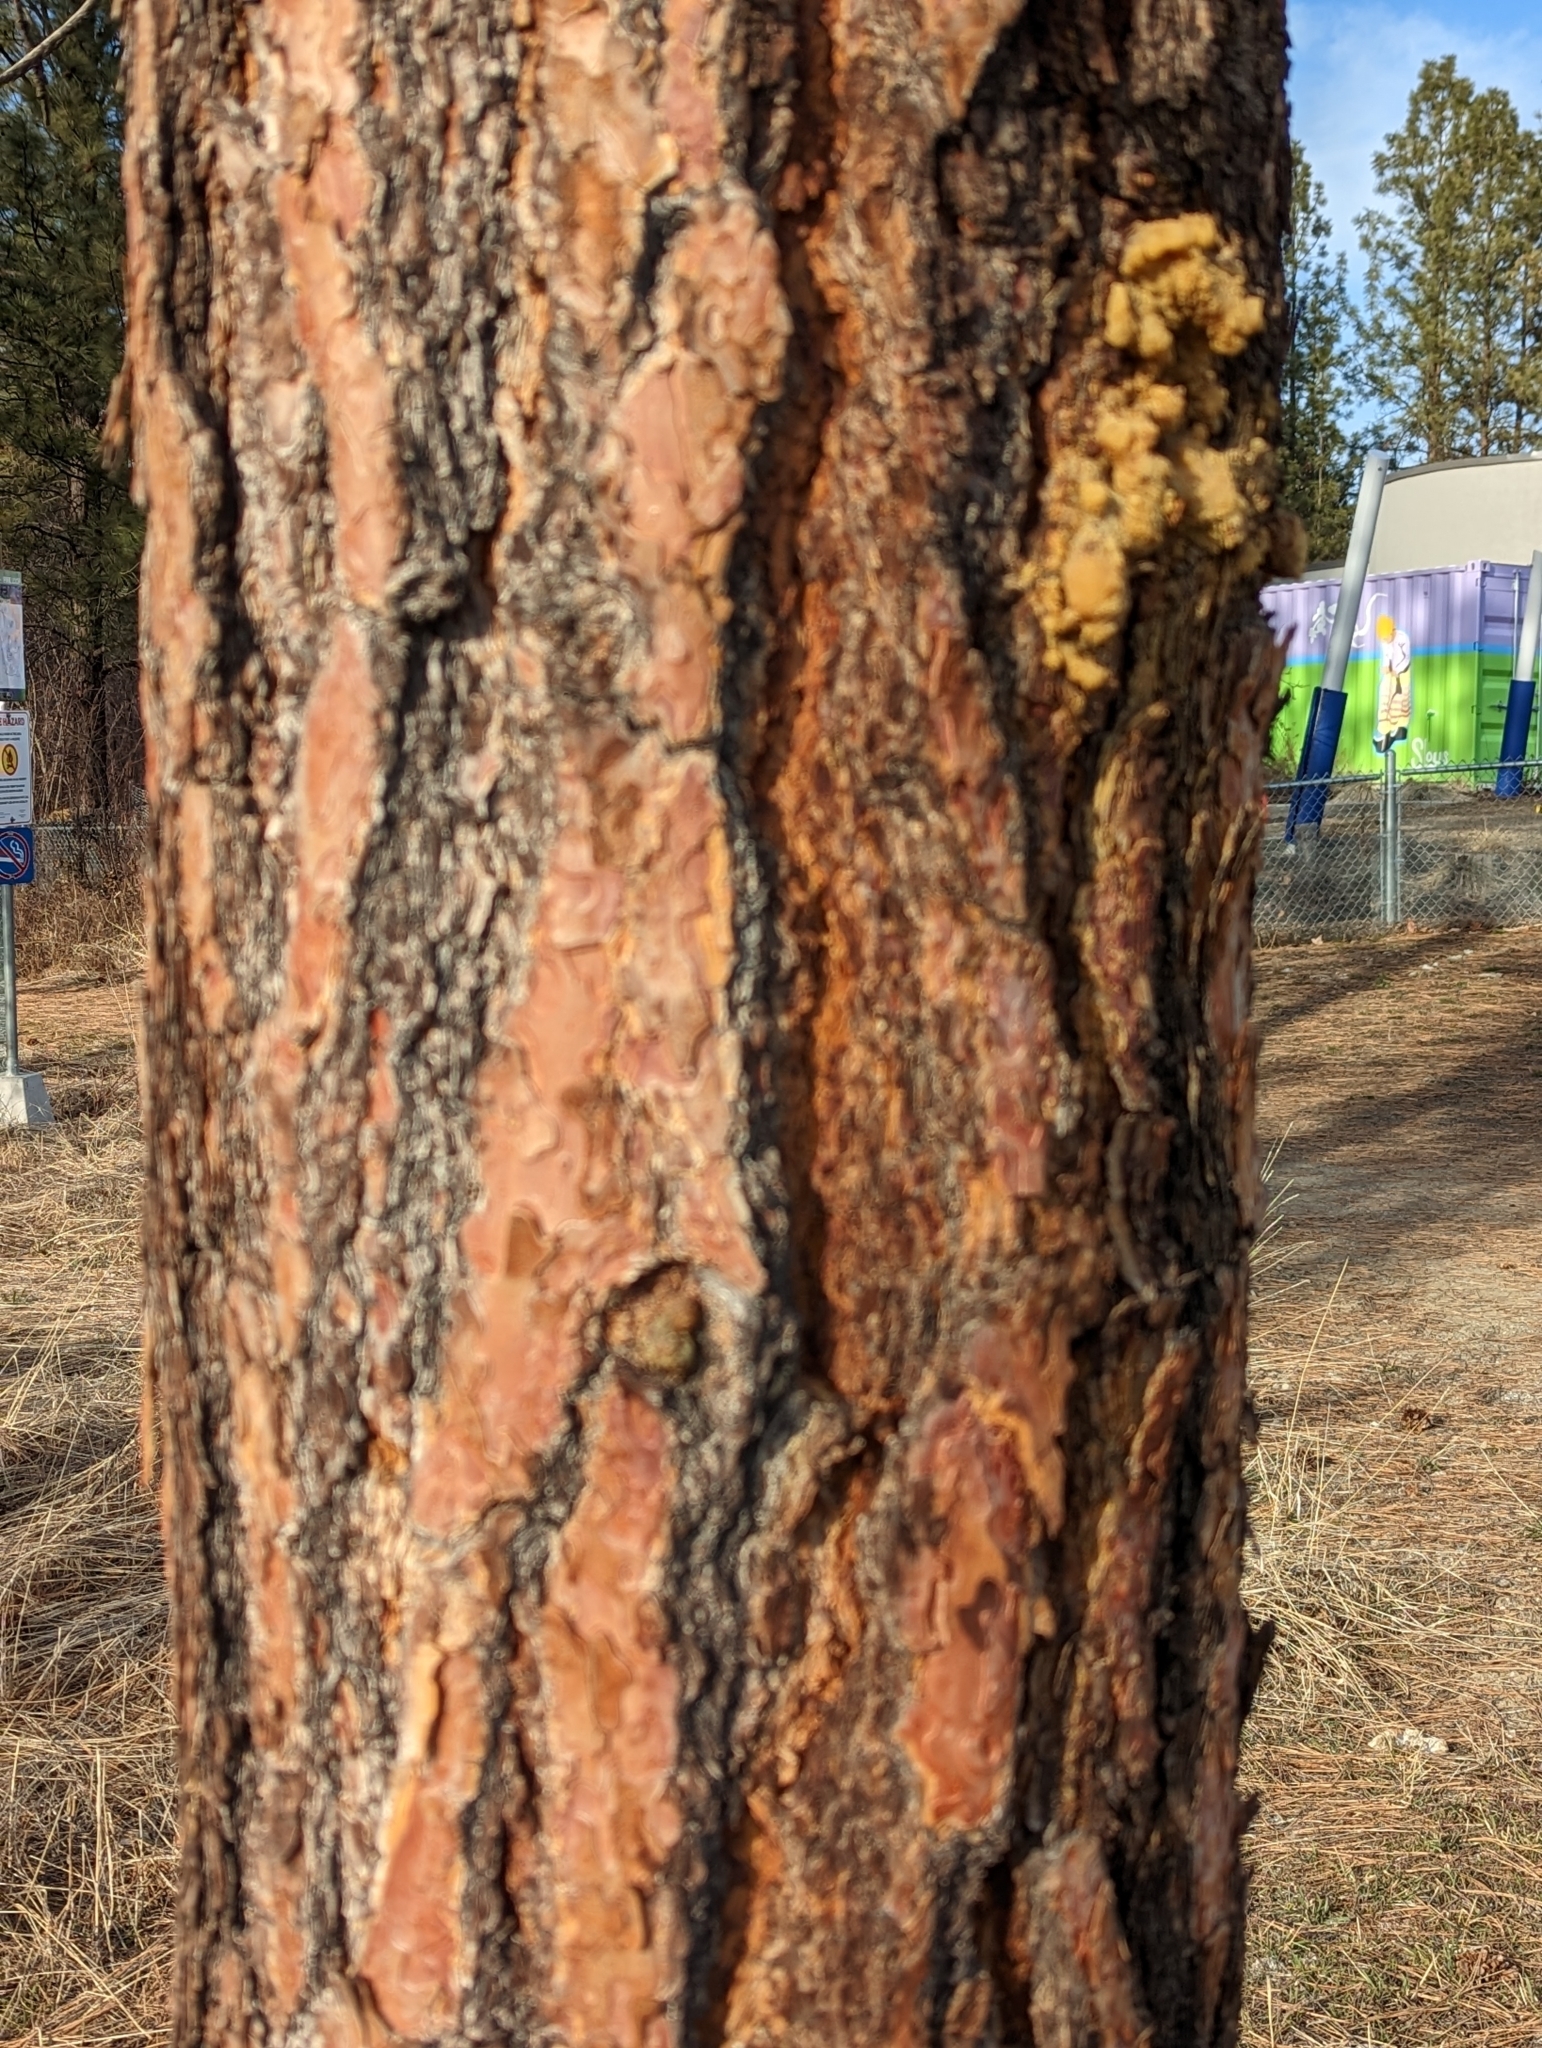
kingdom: Plantae
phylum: Tracheophyta
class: Pinopsida
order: Pinales
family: Pinaceae
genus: Pinus
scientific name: Pinus ponderosa
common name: Western yellow-pine
